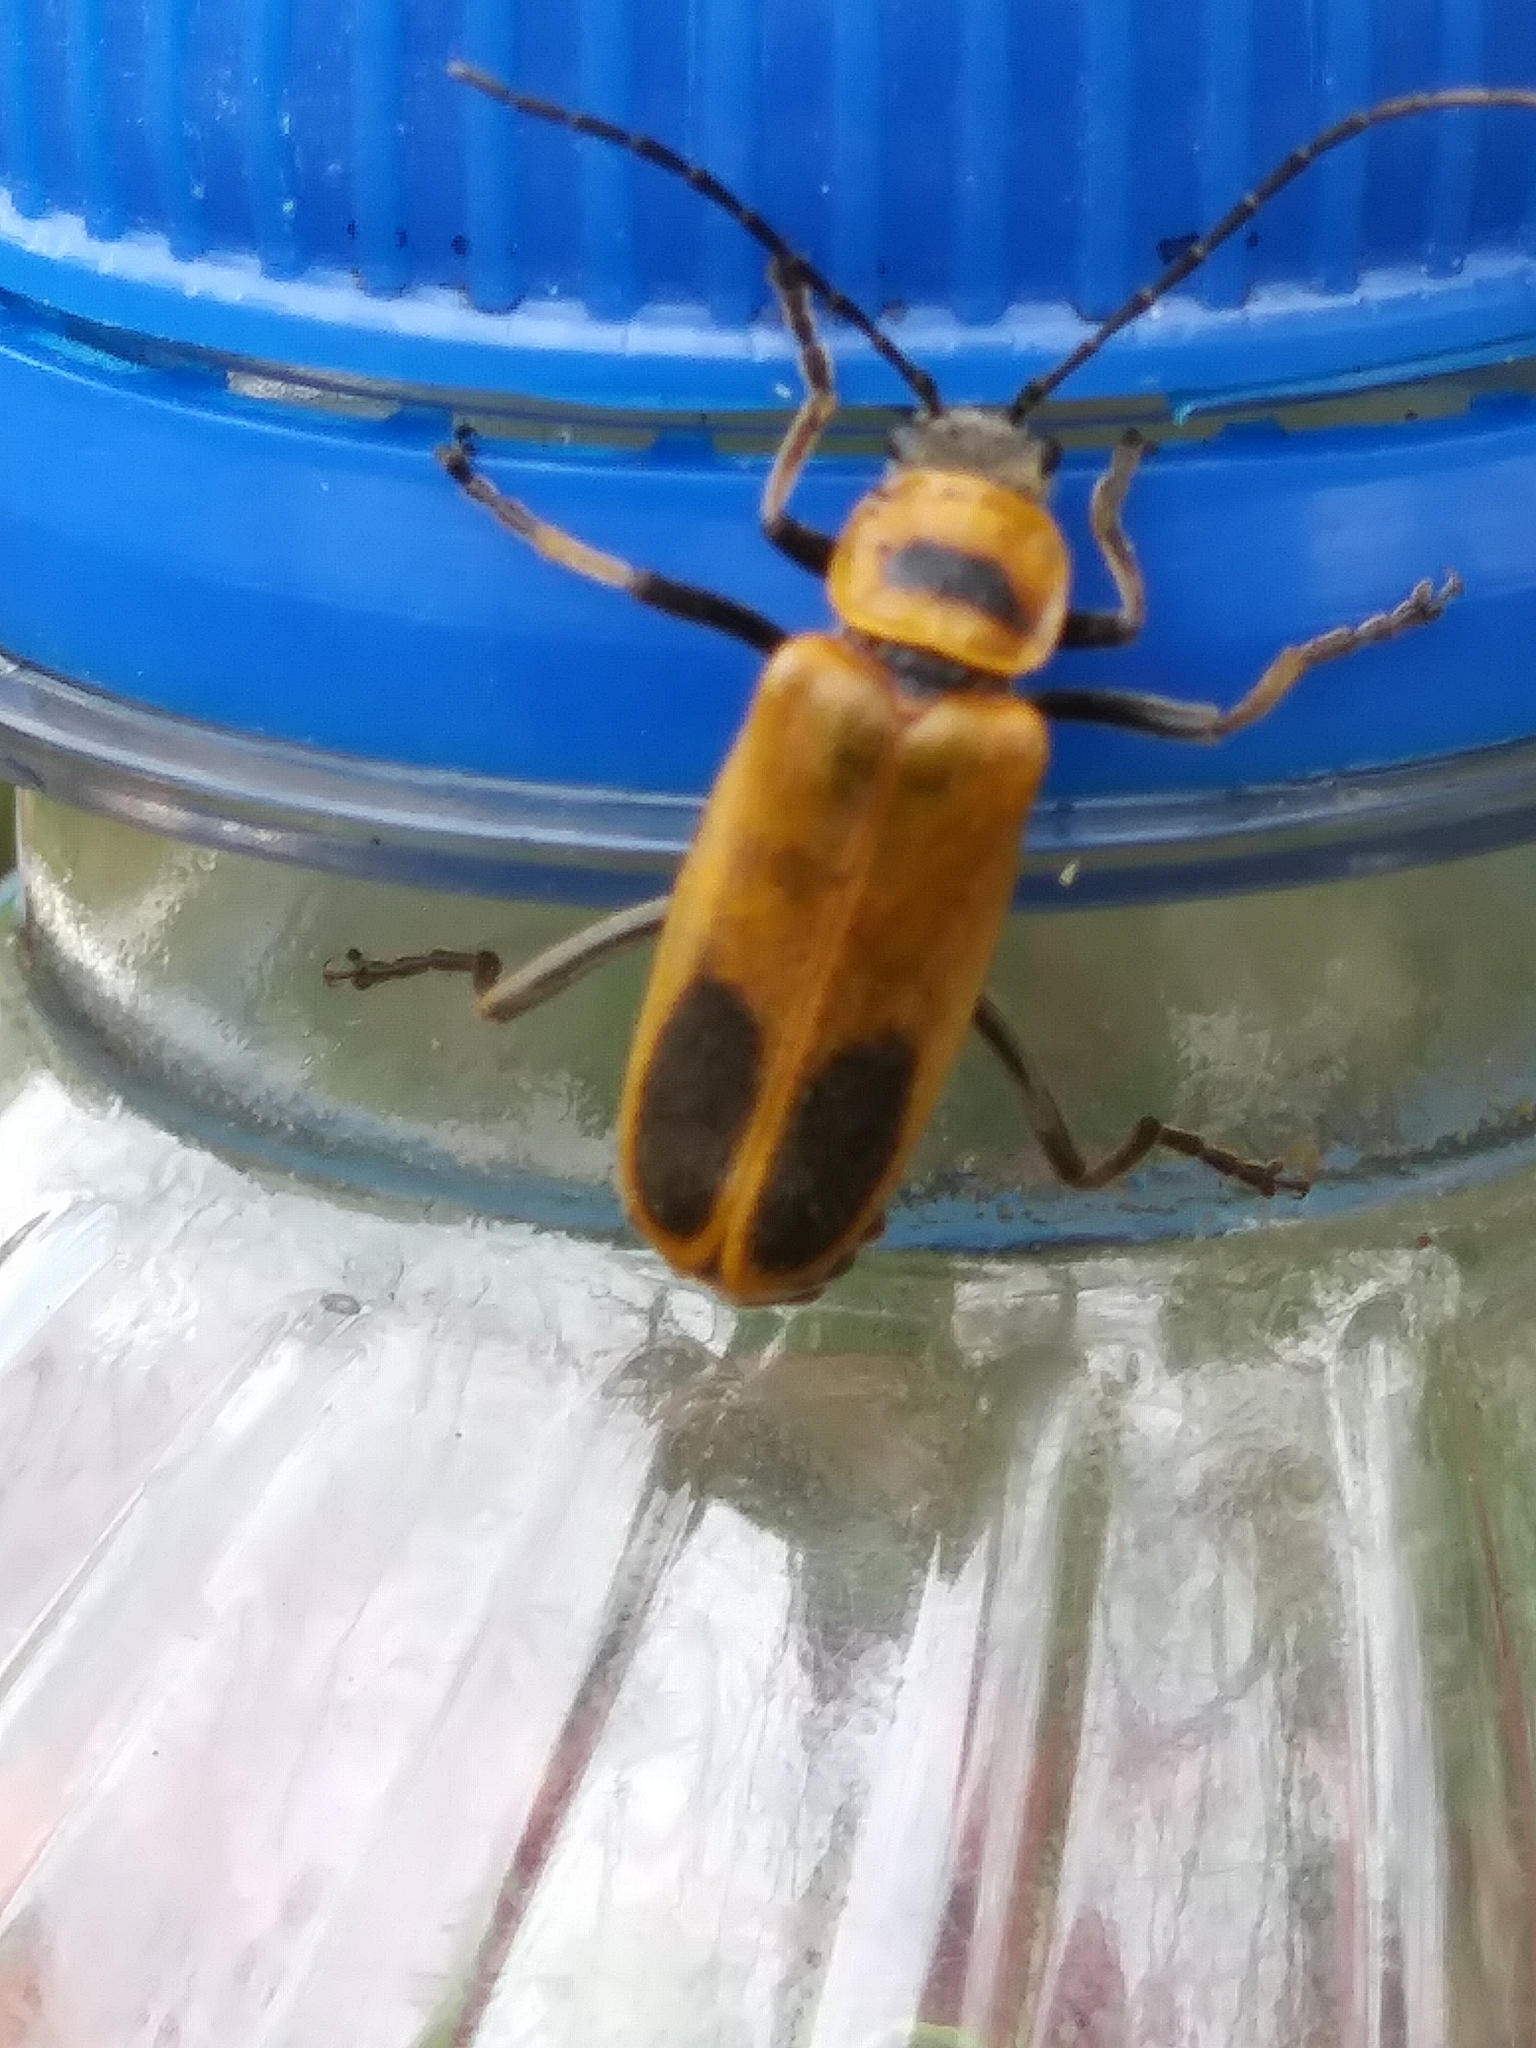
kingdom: Animalia
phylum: Arthropoda
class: Insecta
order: Coleoptera
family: Cantharidae
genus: Chauliognathus
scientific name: Chauliognathus pensylvanicus
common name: Goldenrod soldier beetle
